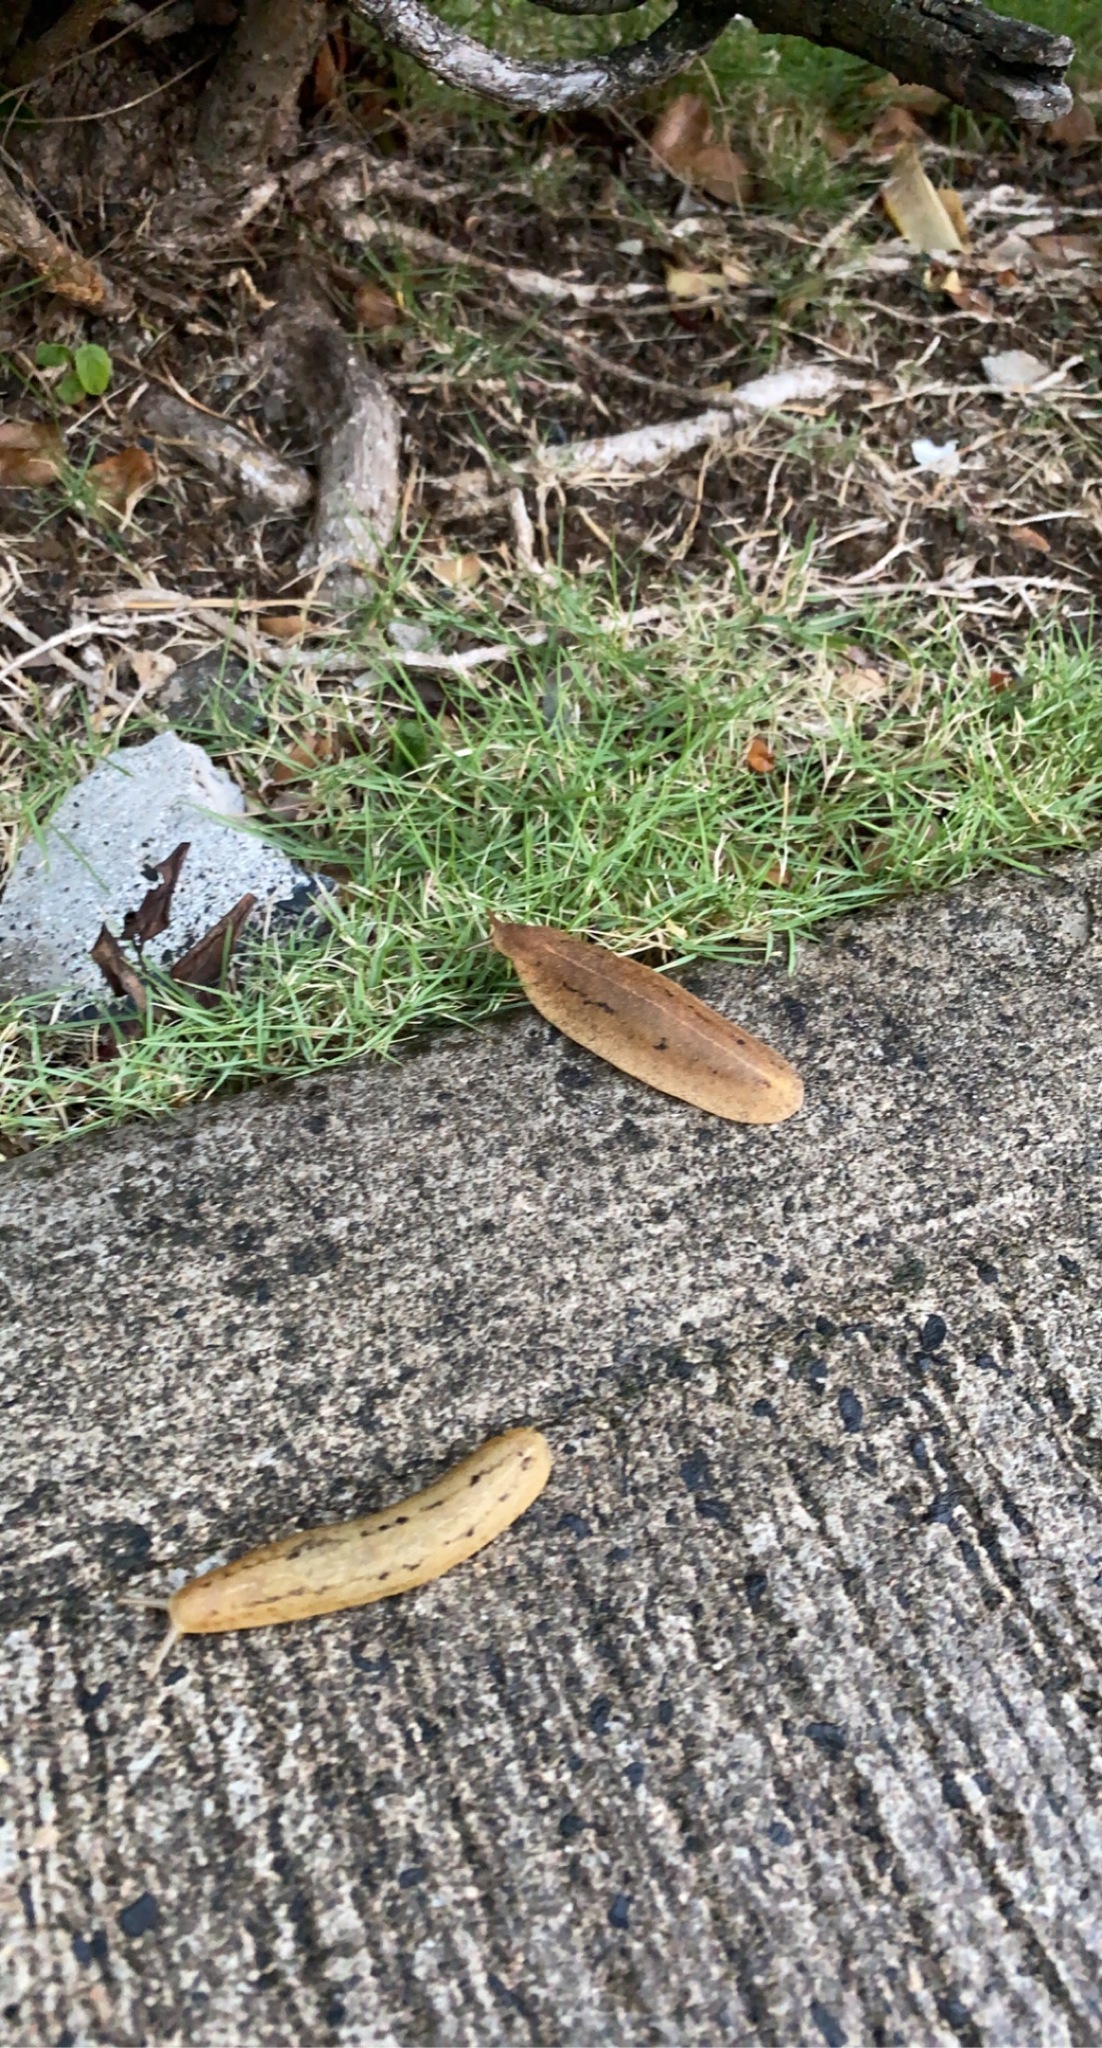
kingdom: Animalia
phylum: Mollusca
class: Gastropoda
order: Systellommatophora
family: Veronicellidae
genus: Veronicella
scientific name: Veronicella cubensis
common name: Two striped slug
